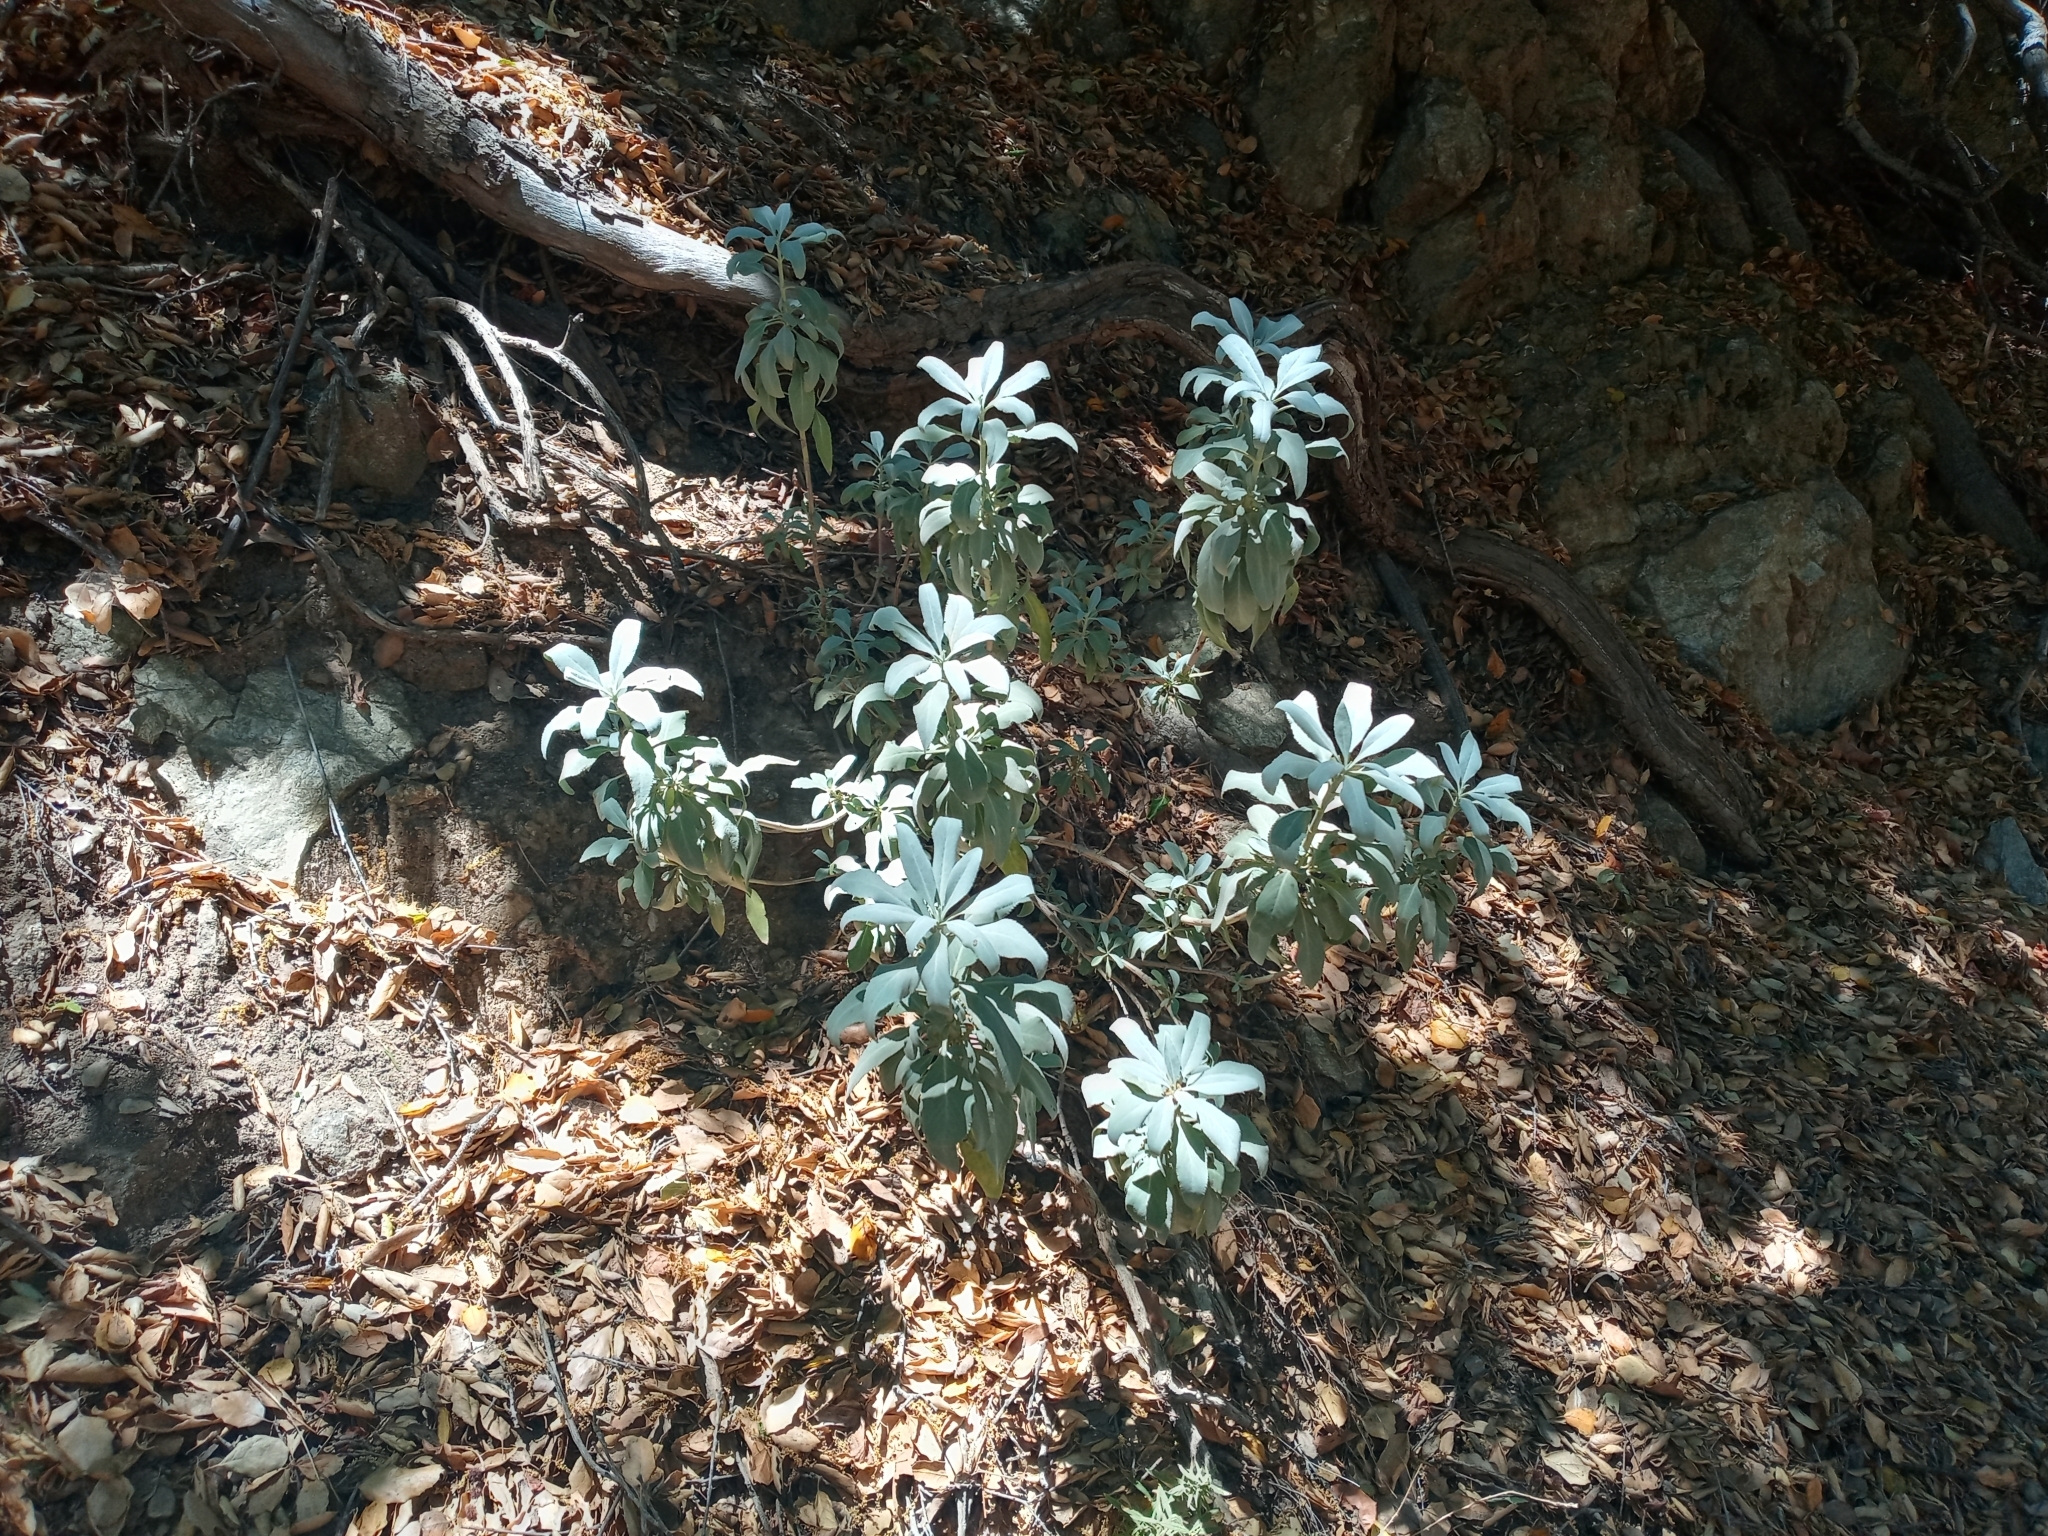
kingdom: Plantae
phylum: Tracheophyta
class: Magnoliopsida
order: Lamiales
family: Lamiaceae
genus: Salvia
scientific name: Salvia apiana
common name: White sage
